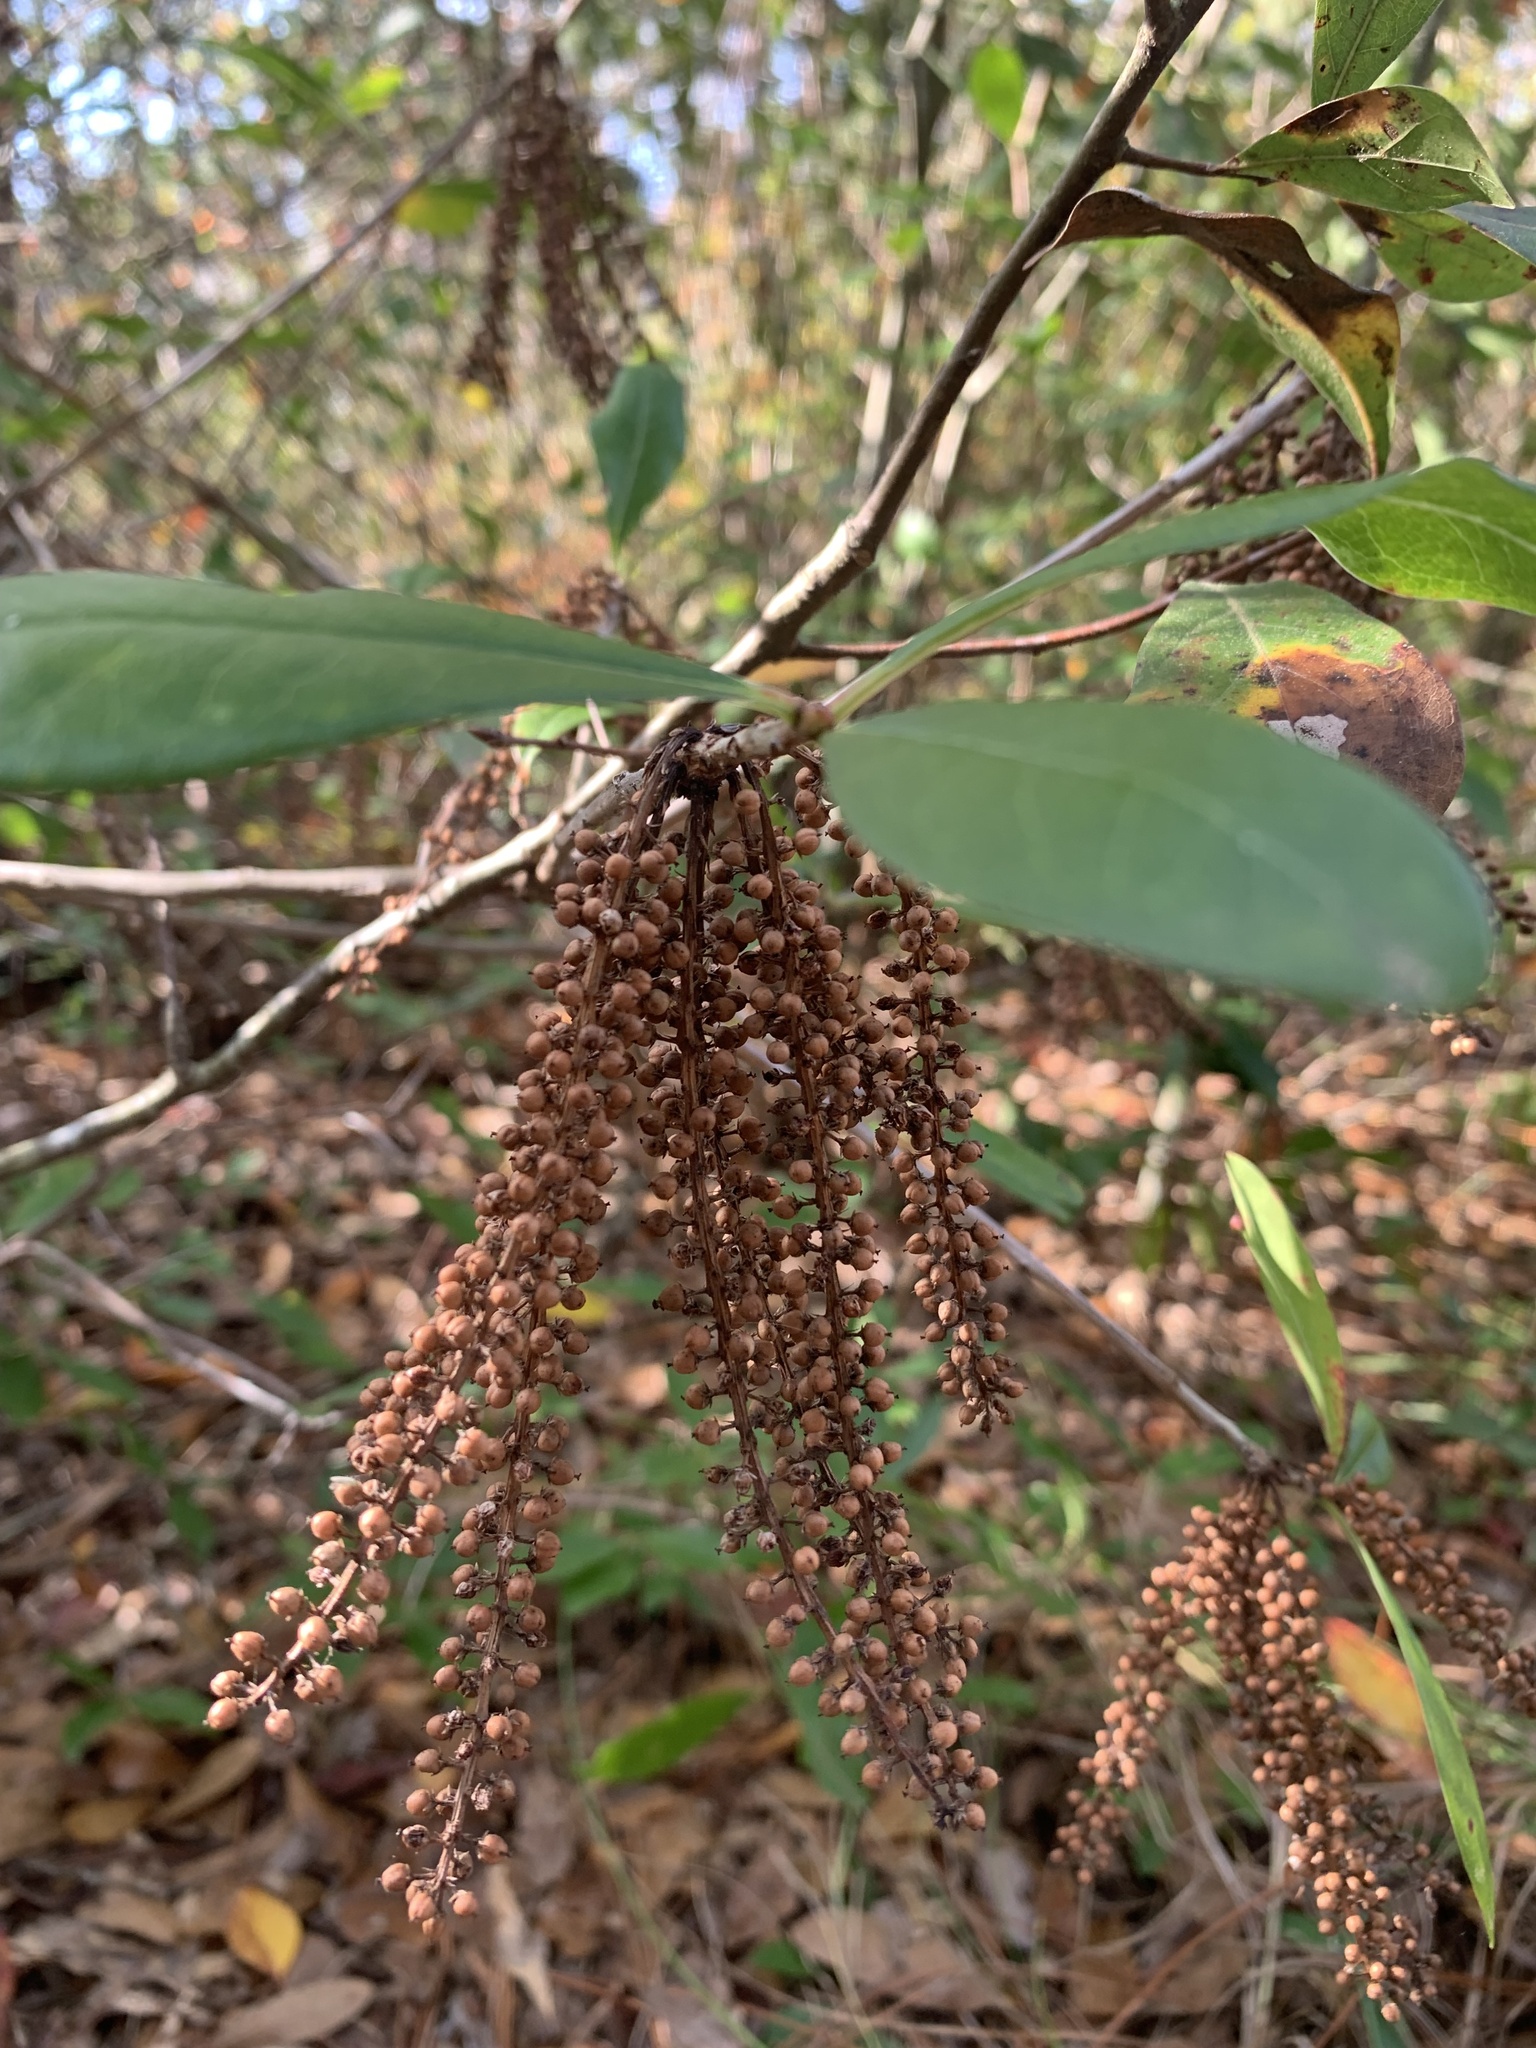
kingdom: Plantae
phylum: Tracheophyta
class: Magnoliopsida
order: Ericales
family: Cyrillaceae
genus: Cyrilla
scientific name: Cyrilla racemiflora
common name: Black titi
